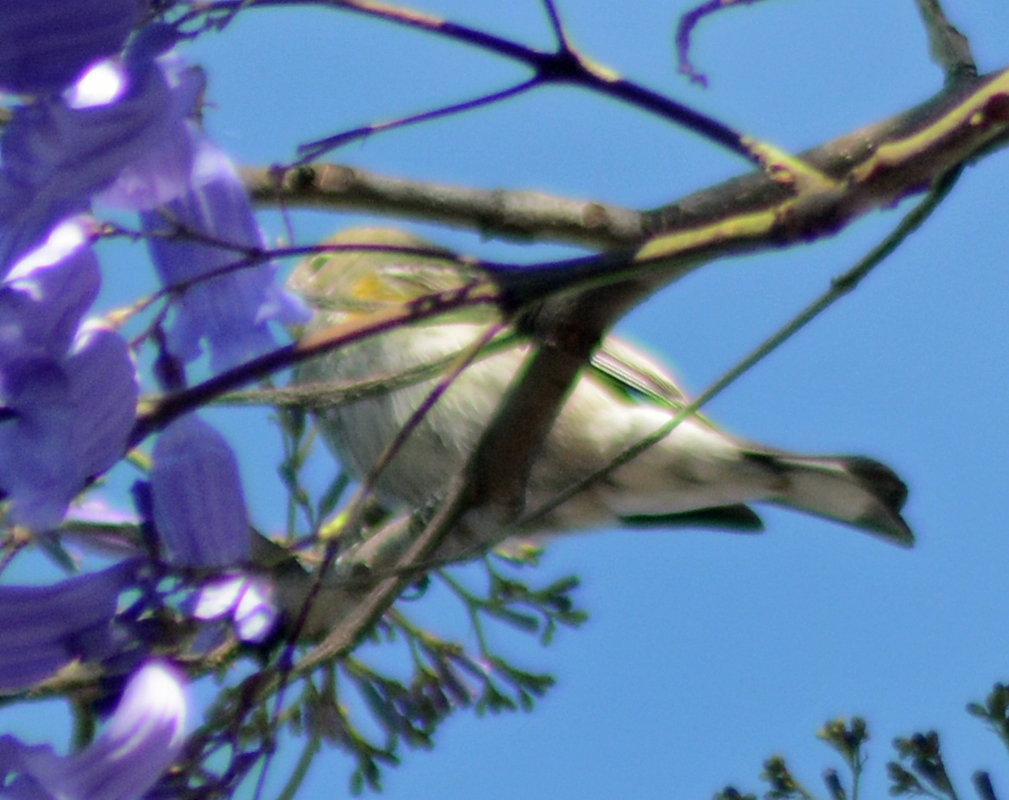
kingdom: Animalia
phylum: Chordata
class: Aves
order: Passeriformes
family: Parulidae
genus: Setophaga
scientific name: Setophaga coronata
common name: Myrtle warbler
